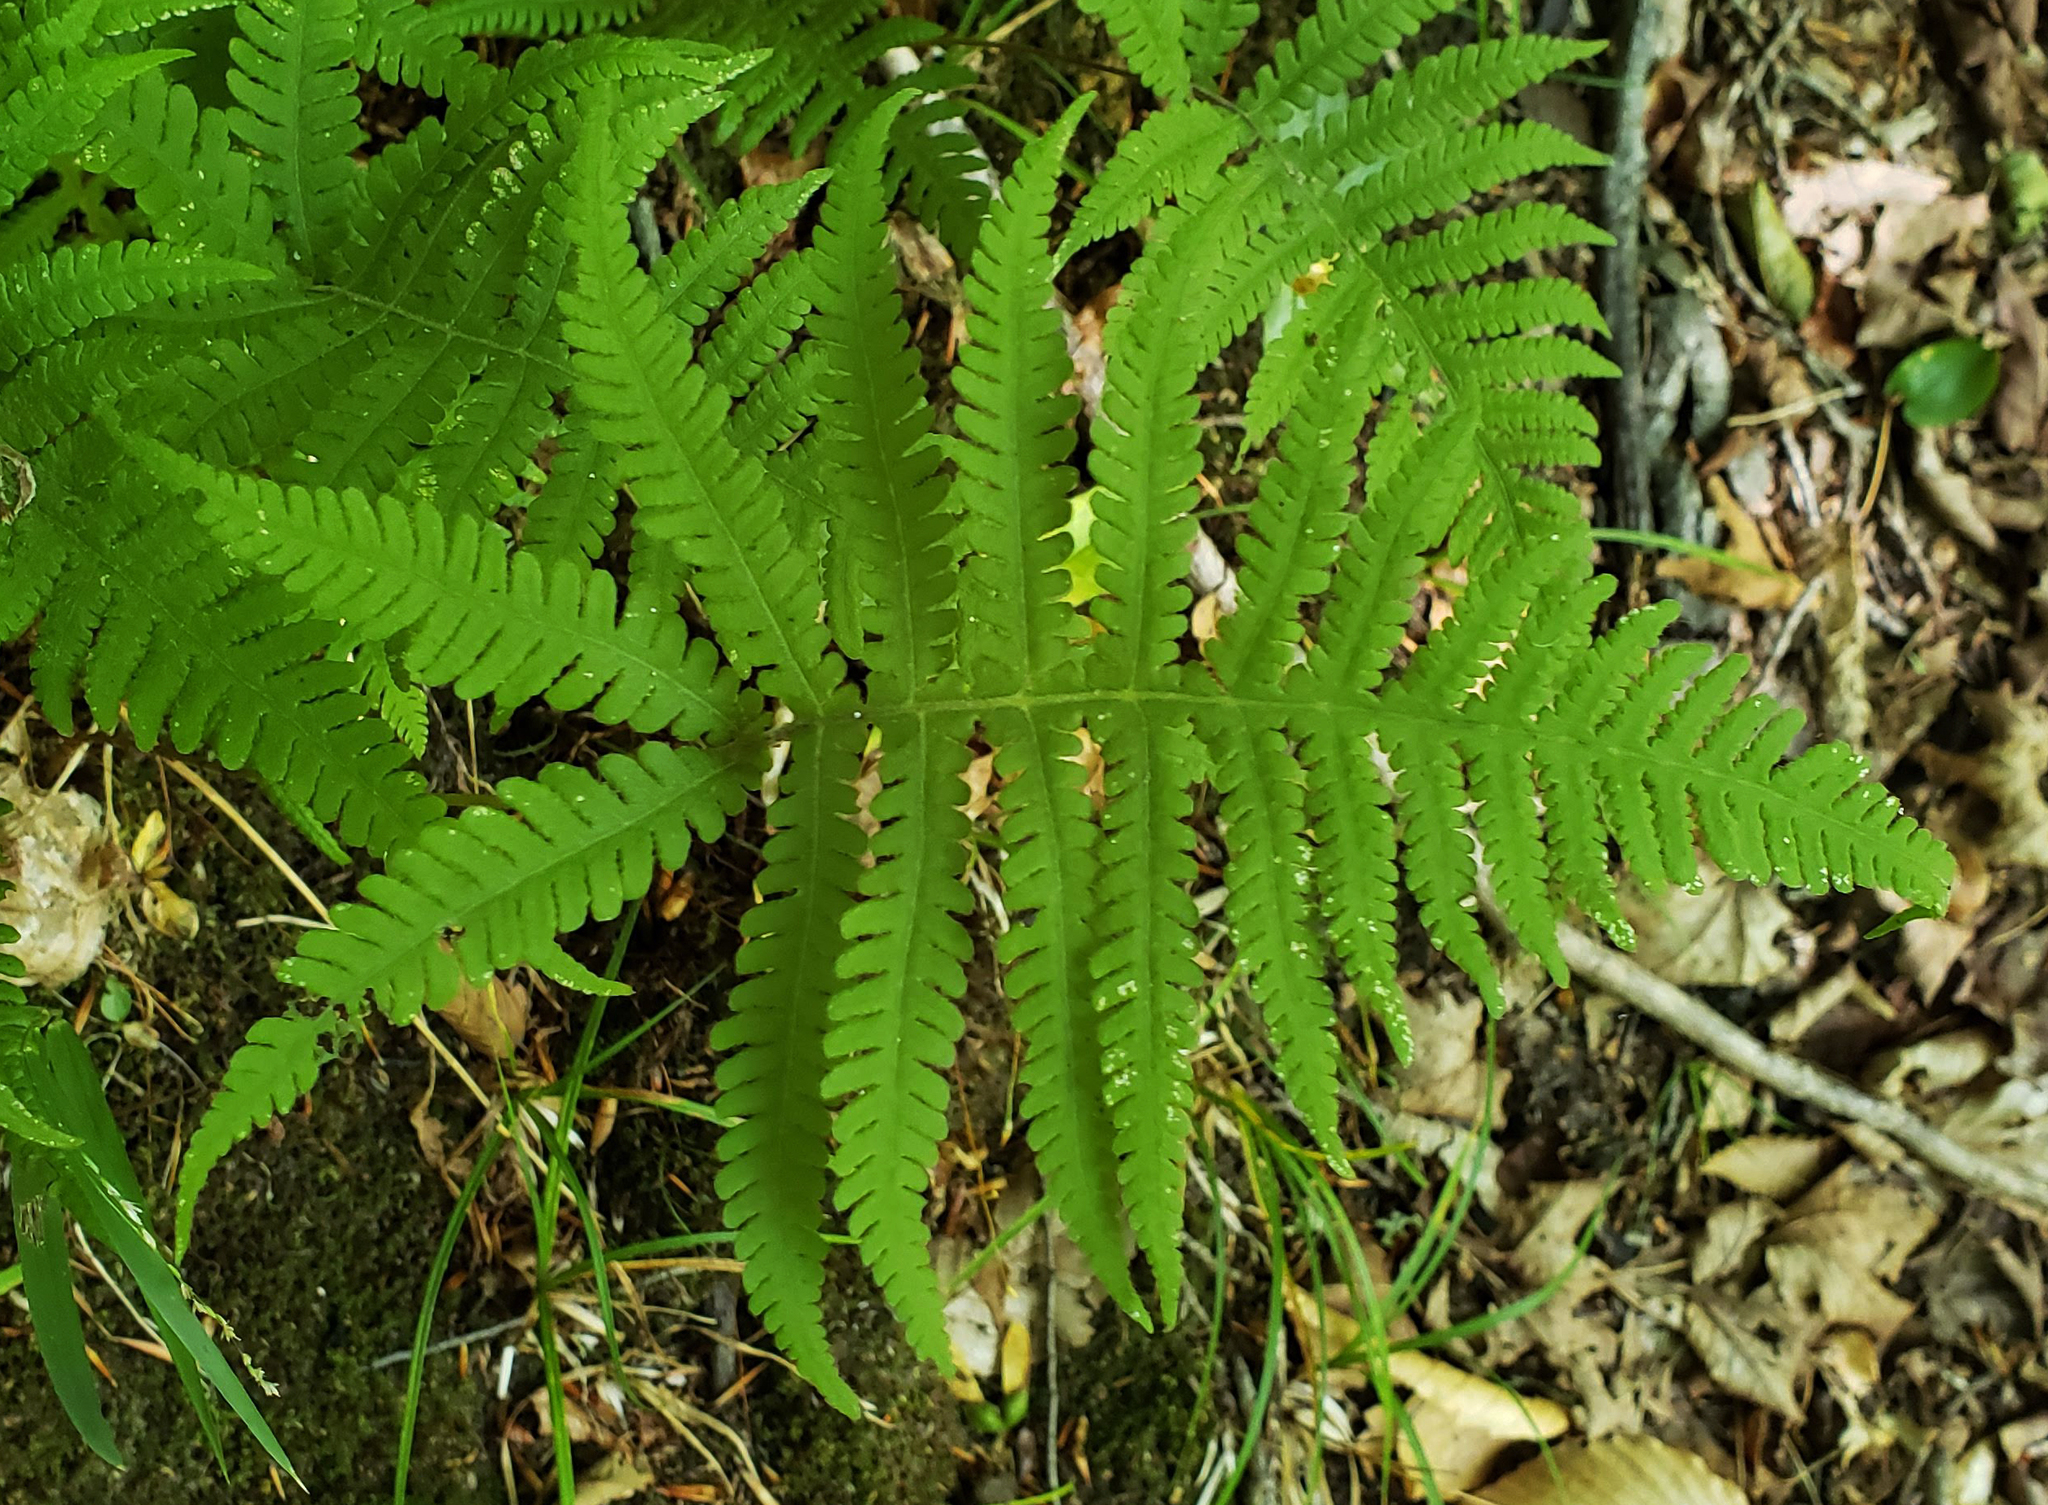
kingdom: Plantae
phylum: Tracheophyta
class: Polypodiopsida
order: Polypodiales
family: Thelypteridaceae
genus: Phegopteris
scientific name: Phegopteris connectilis
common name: Beech fern
